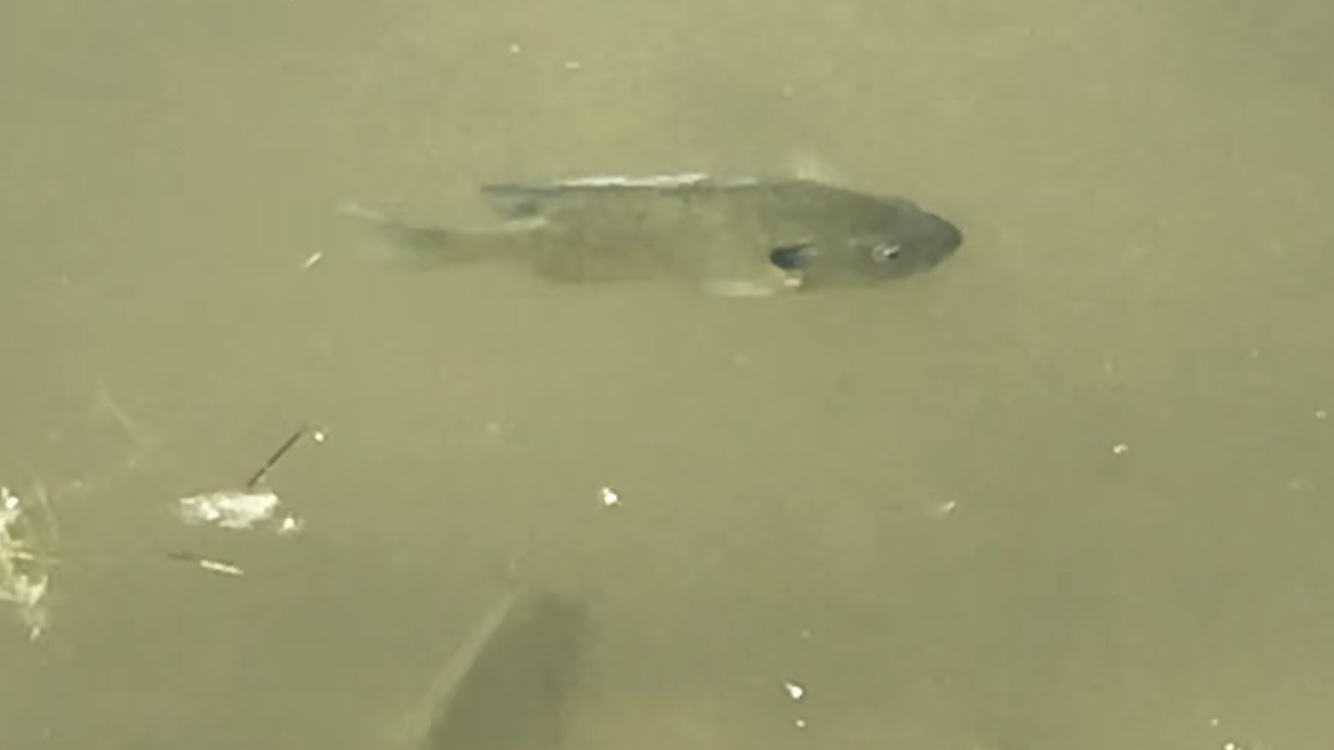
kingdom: Animalia
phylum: Chordata
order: Perciformes
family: Centrarchidae
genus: Lepomis
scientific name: Lepomis macrochirus
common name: Bluegill
